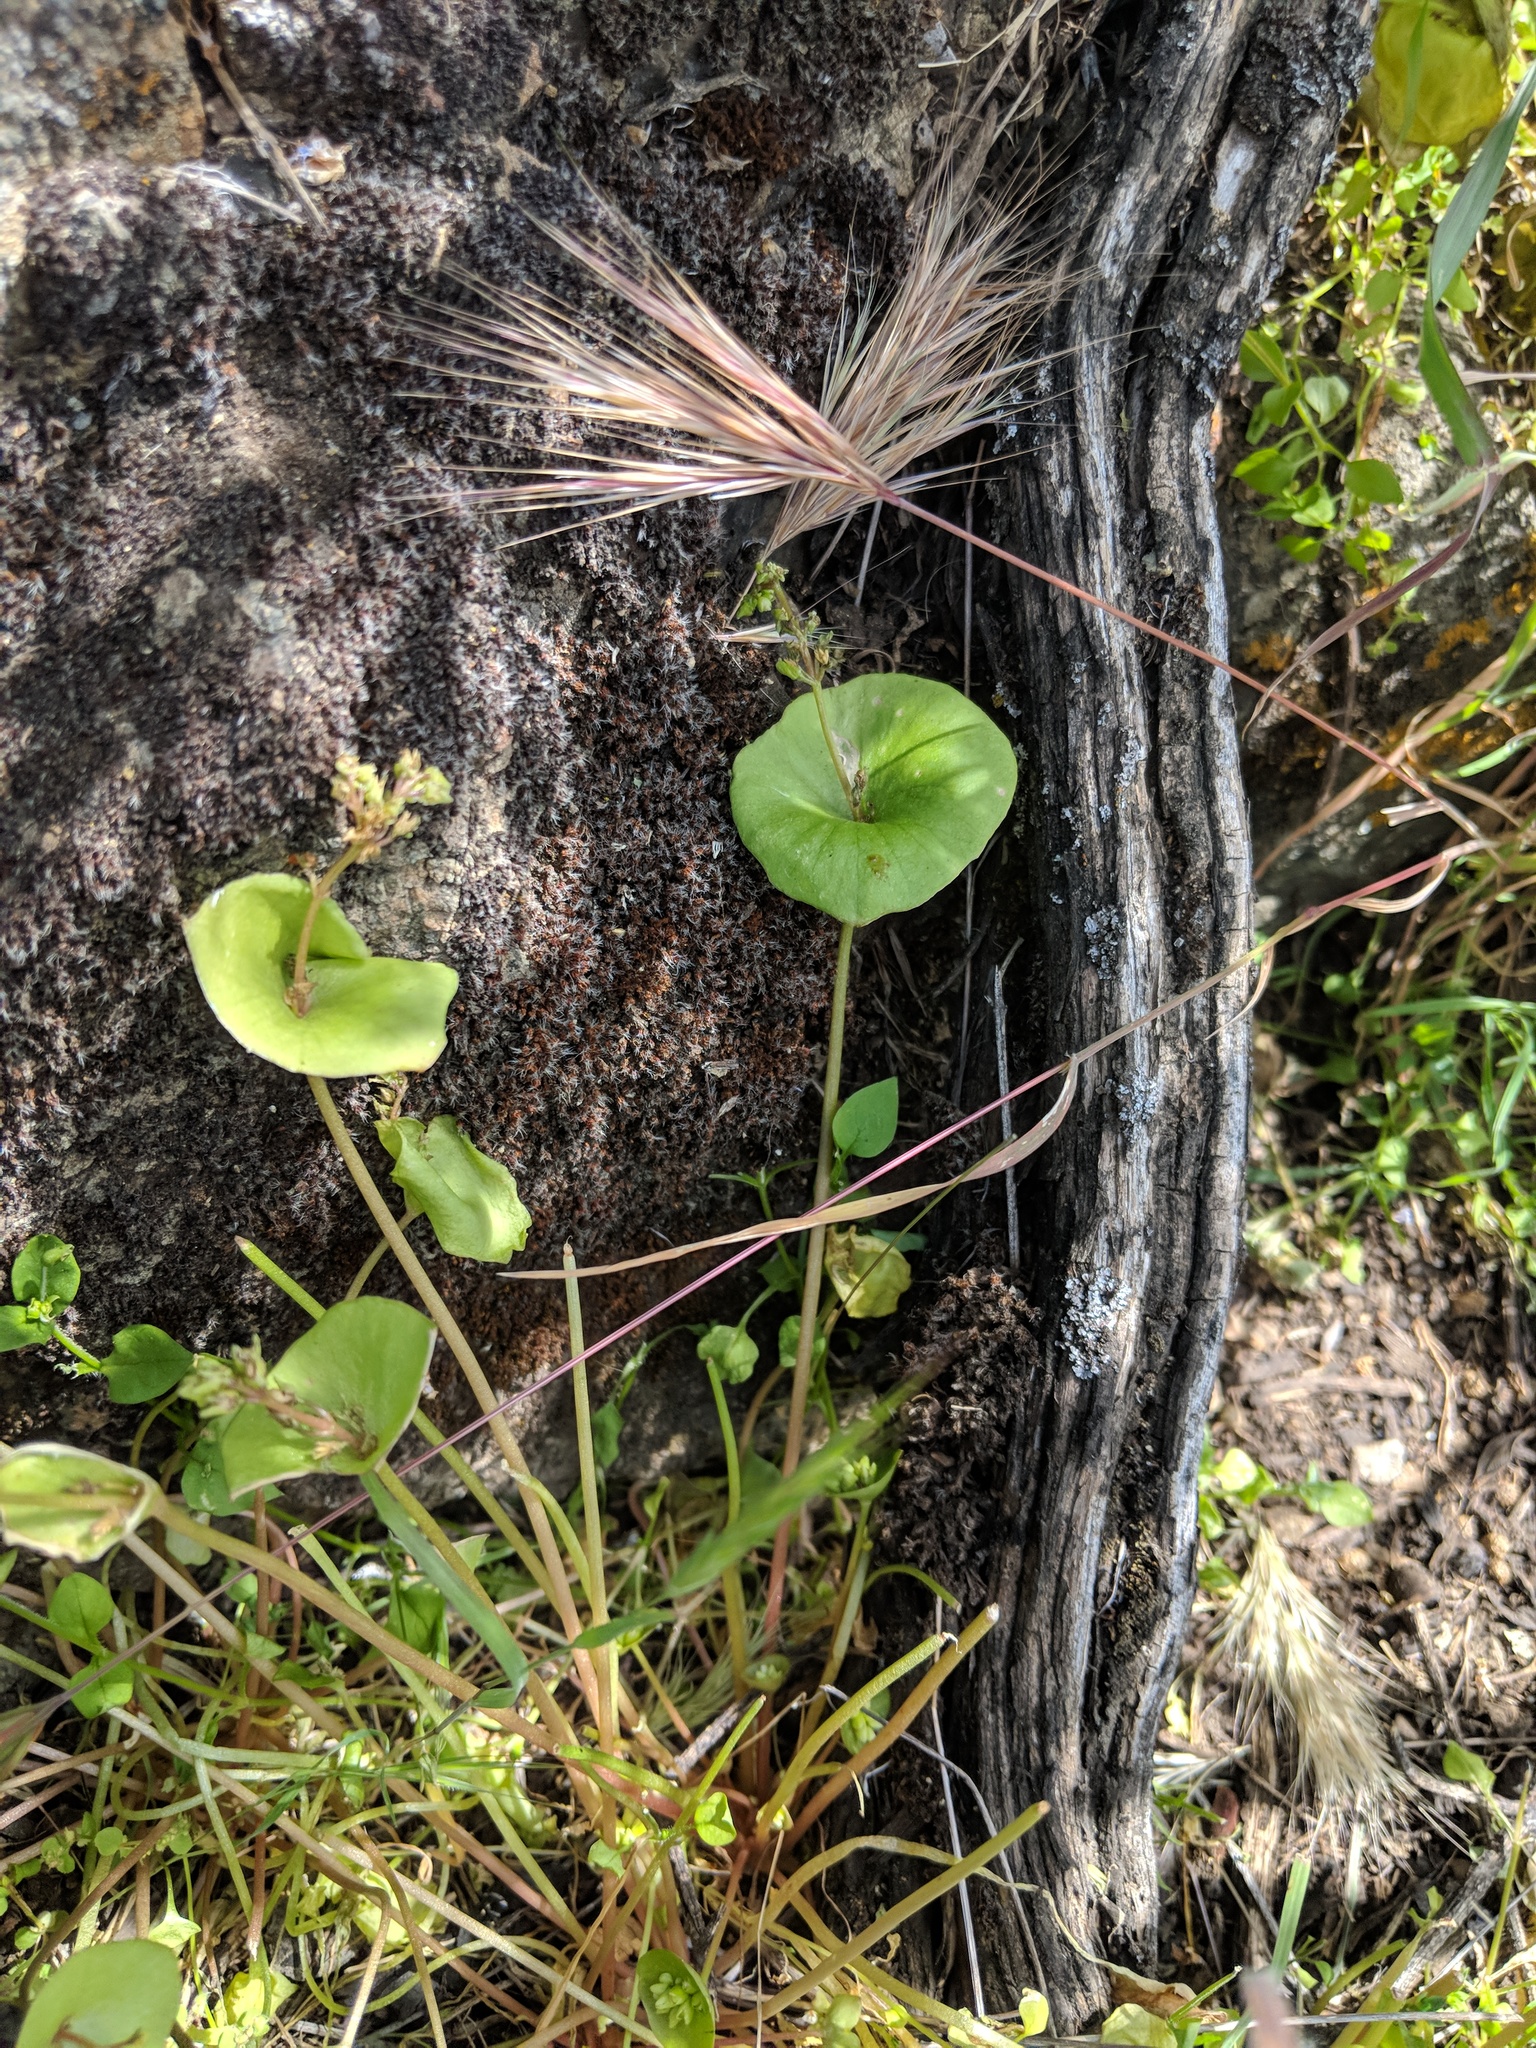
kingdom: Plantae
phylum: Tracheophyta
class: Magnoliopsida
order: Caryophyllales
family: Montiaceae
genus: Claytonia
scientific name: Claytonia perfoliata
